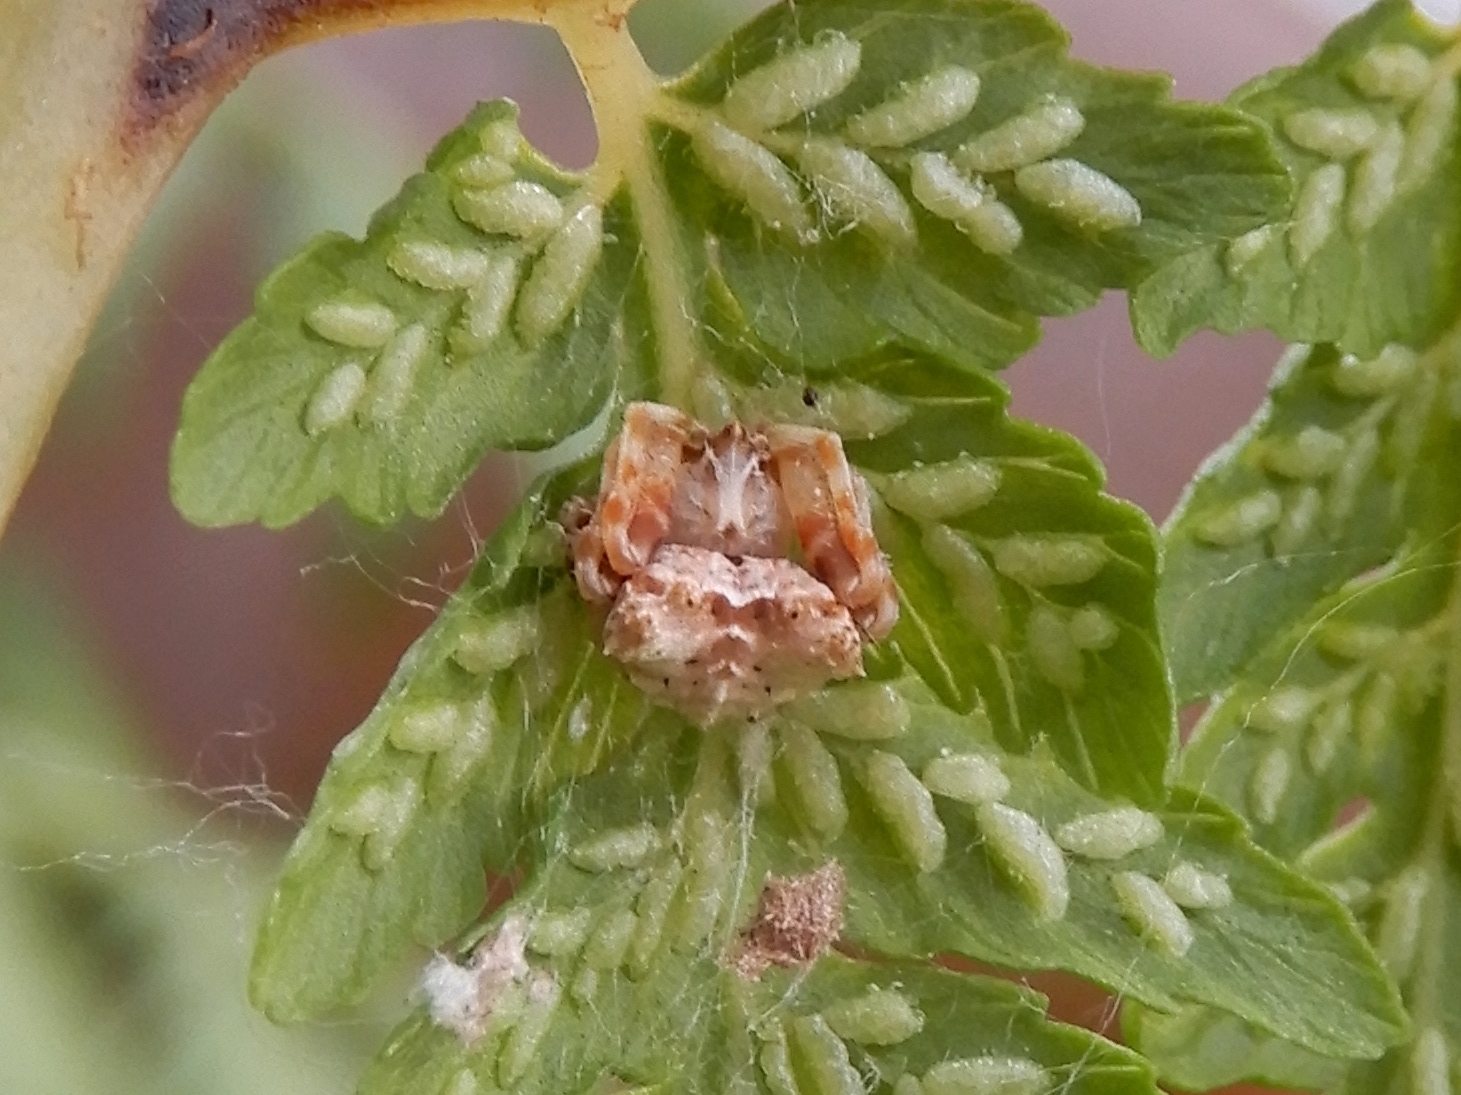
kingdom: Animalia
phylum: Arthropoda
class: Arachnida
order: Araneae
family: Araneidae
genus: Celaenia
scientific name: Celaenia olivacea
